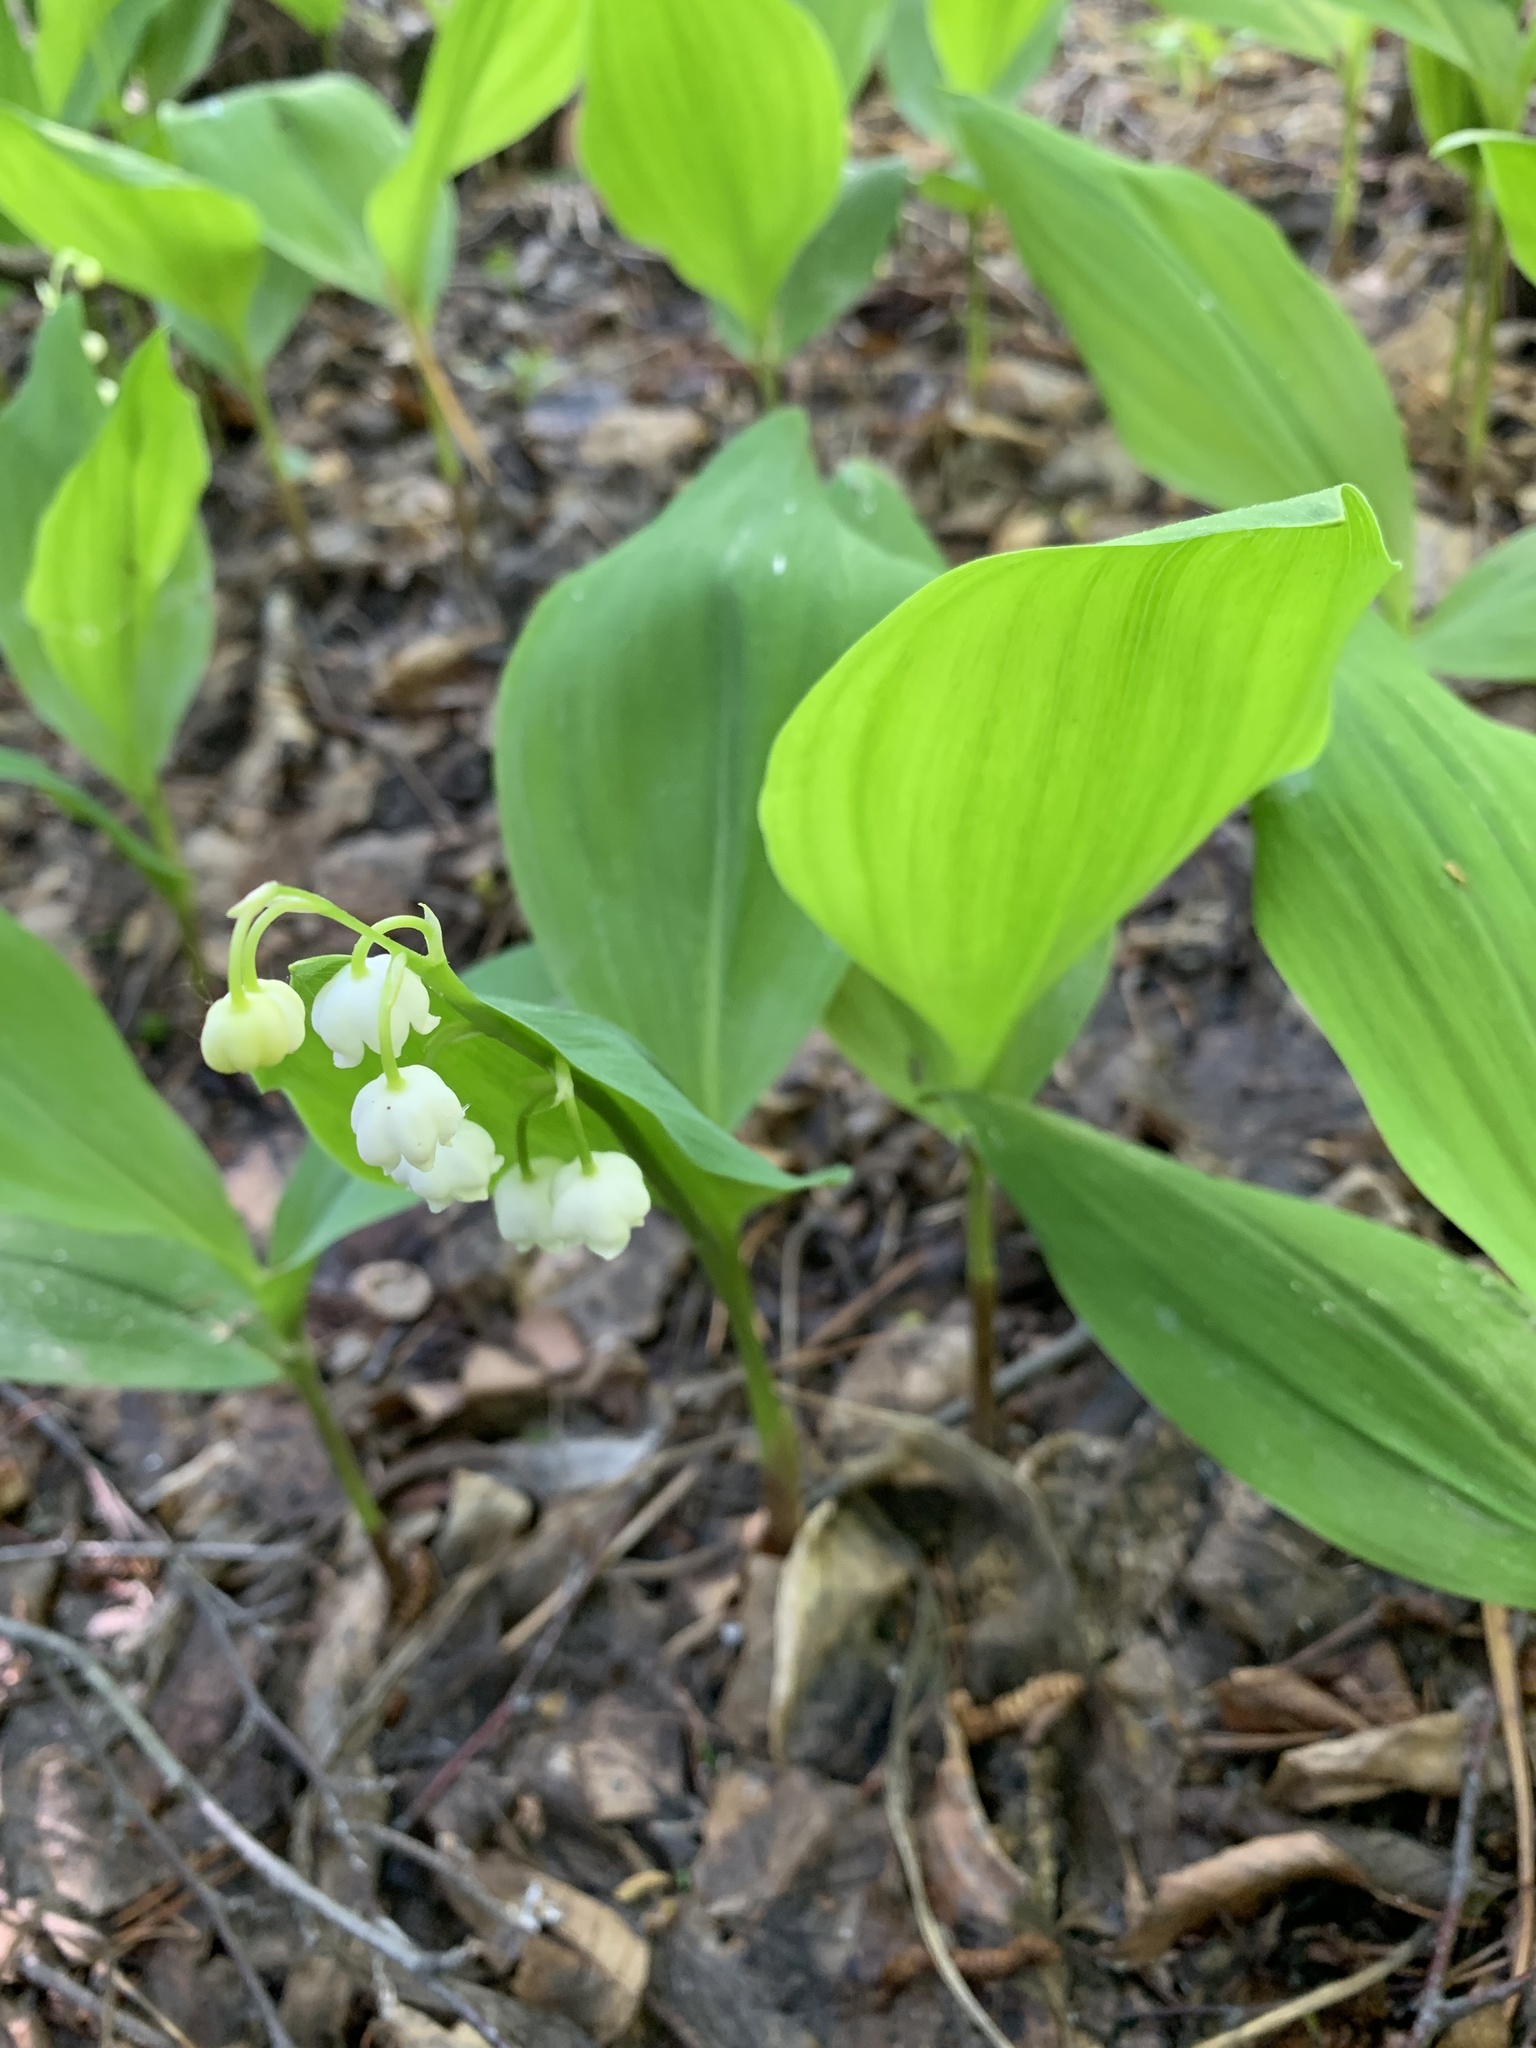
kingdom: Plantae
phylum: Tracheophyta
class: Liliopsida
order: Asparagales
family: Asparagaceae
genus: Convallaria
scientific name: Convallaria majalis
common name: Lily-of-the-valley
